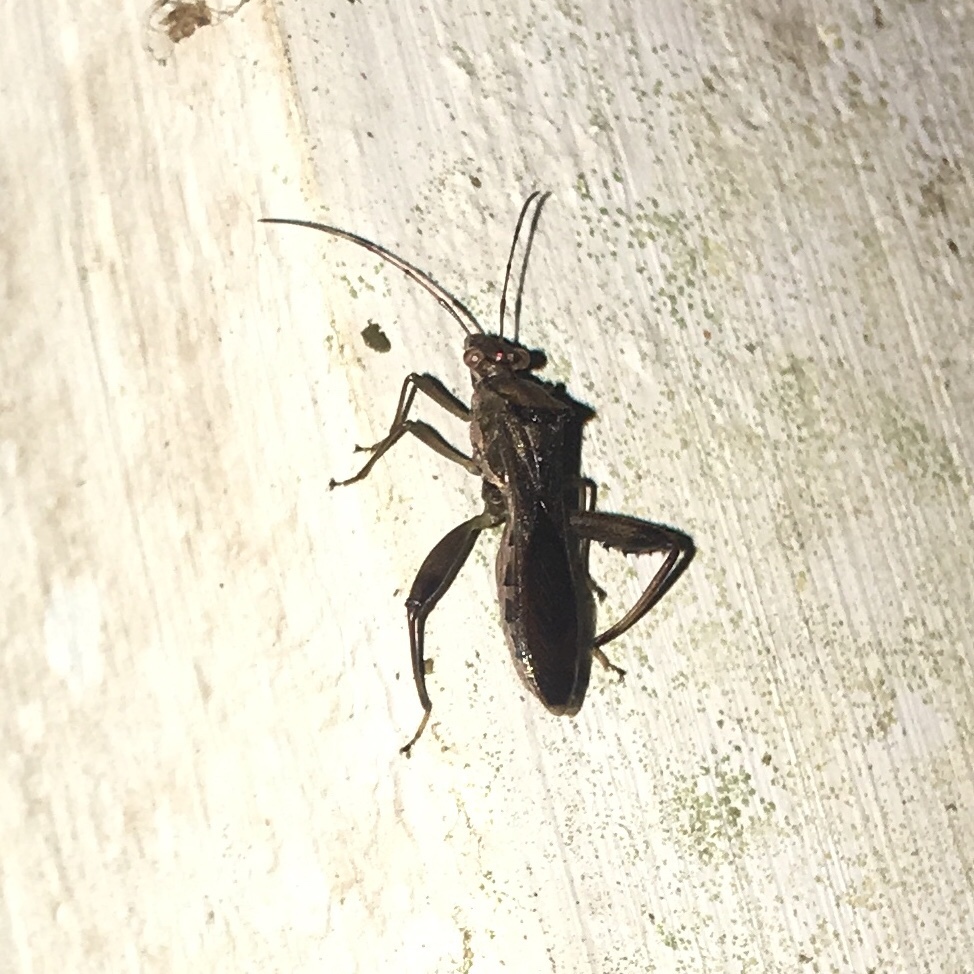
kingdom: Animalia
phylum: Arthropoda
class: Insecta
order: Hemiptera
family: Alydidae
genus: Hyalymenus
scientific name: Hyalymenus tarsatus
